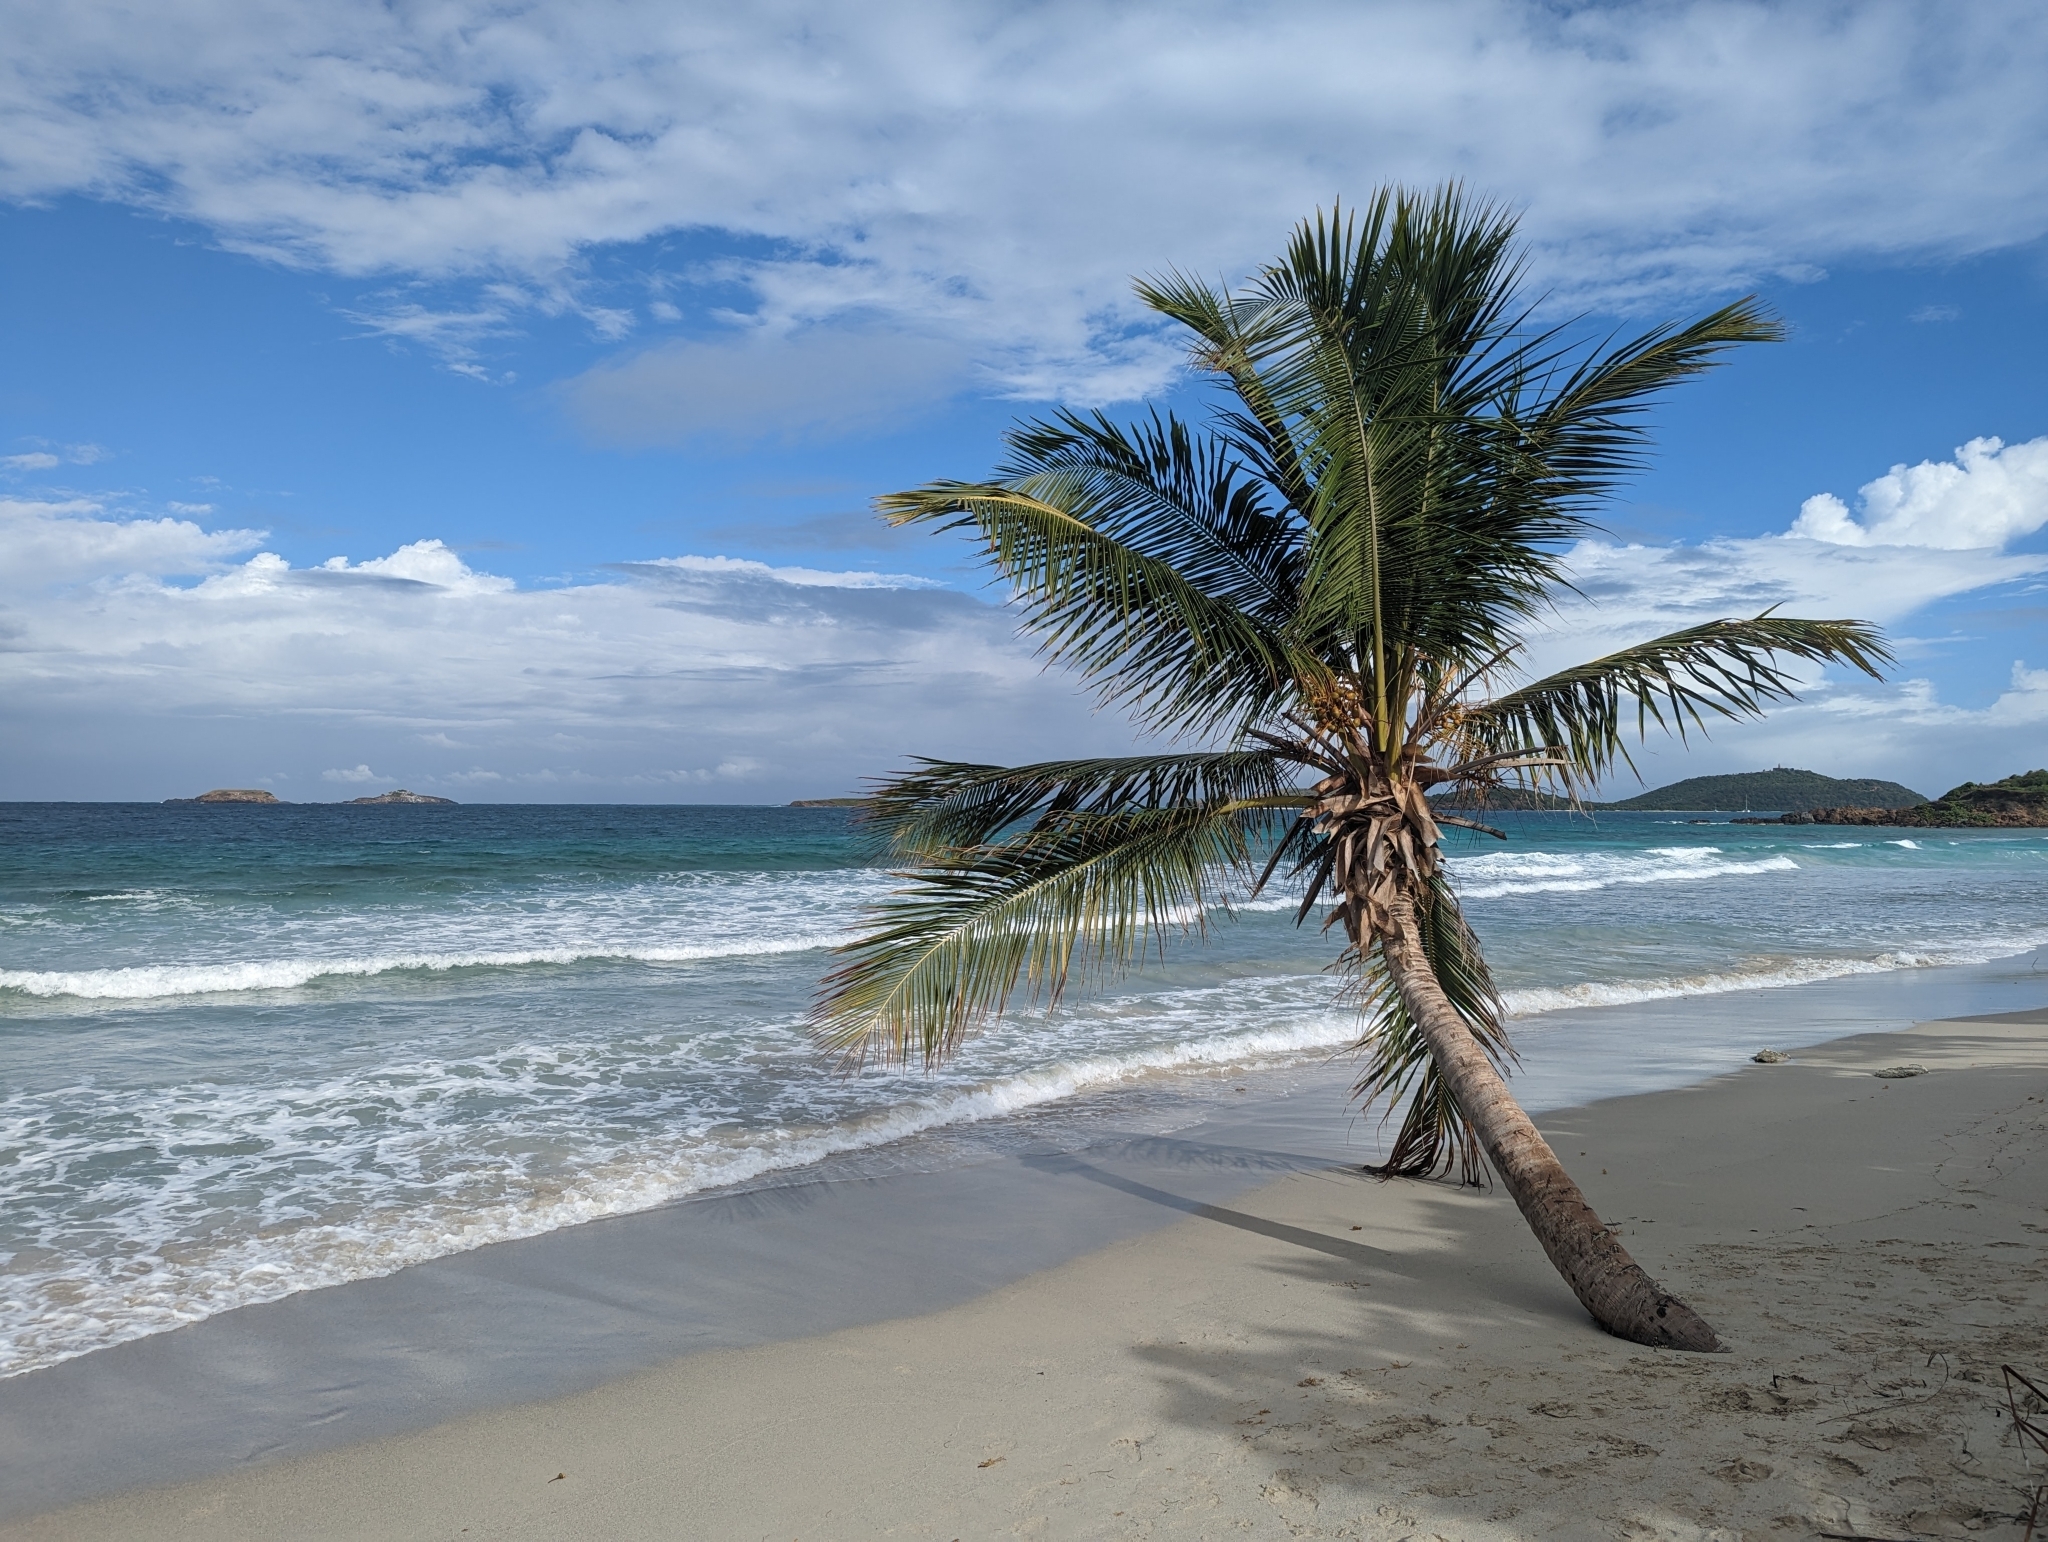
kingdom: Plantae
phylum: Tracheophyta
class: Liliopsida
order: Arecales
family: Arecaceae
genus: Cocos
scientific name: Cocos nucifera
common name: Coconut palm
